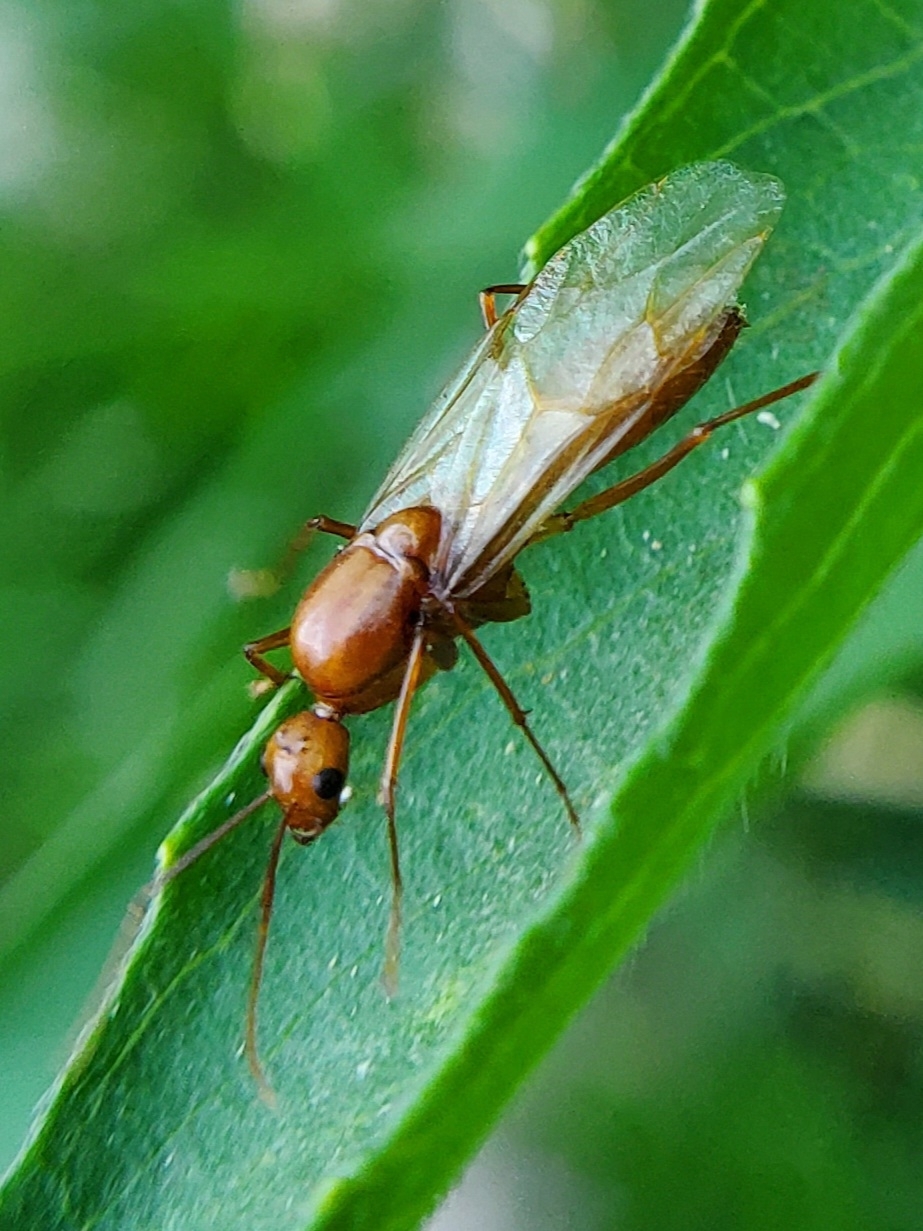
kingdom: Animalia
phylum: Arthropoda
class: Insecta
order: Hymenoptera
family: Formicidae
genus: Camponotus
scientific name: Camponotus castaneus
